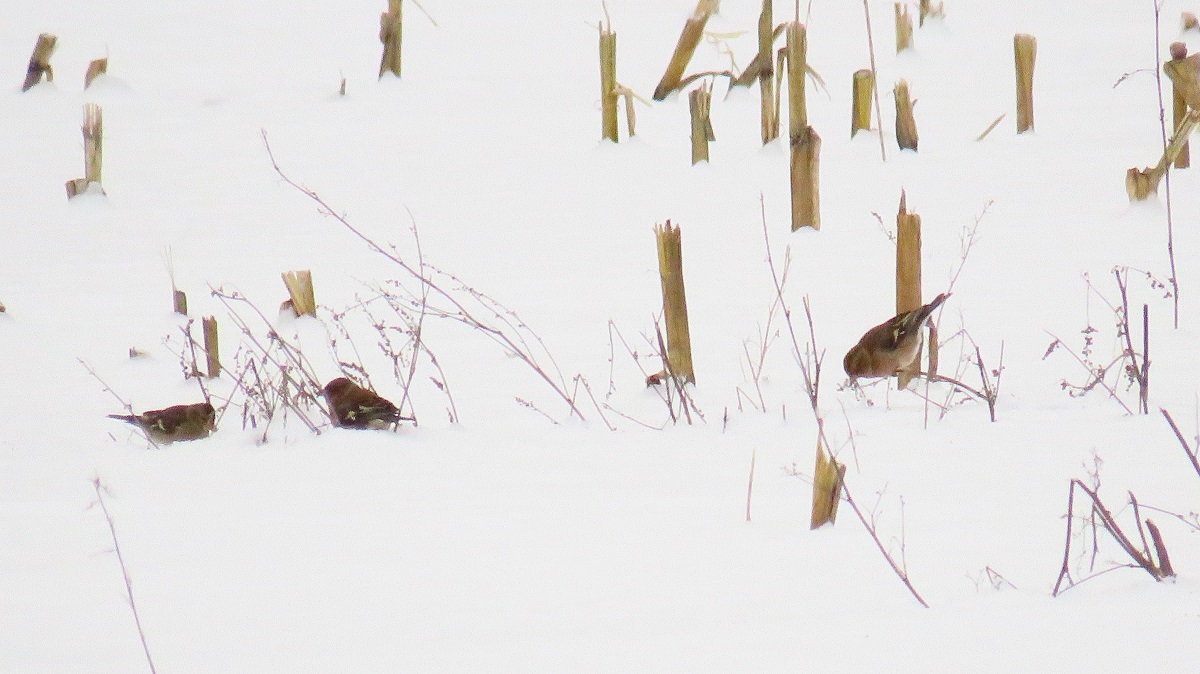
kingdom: Animalia
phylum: Chordata
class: Aves
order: Passeriformes
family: Fringillidae
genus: Fringilla
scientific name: Fringilla coelebs
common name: Common chaffinch
